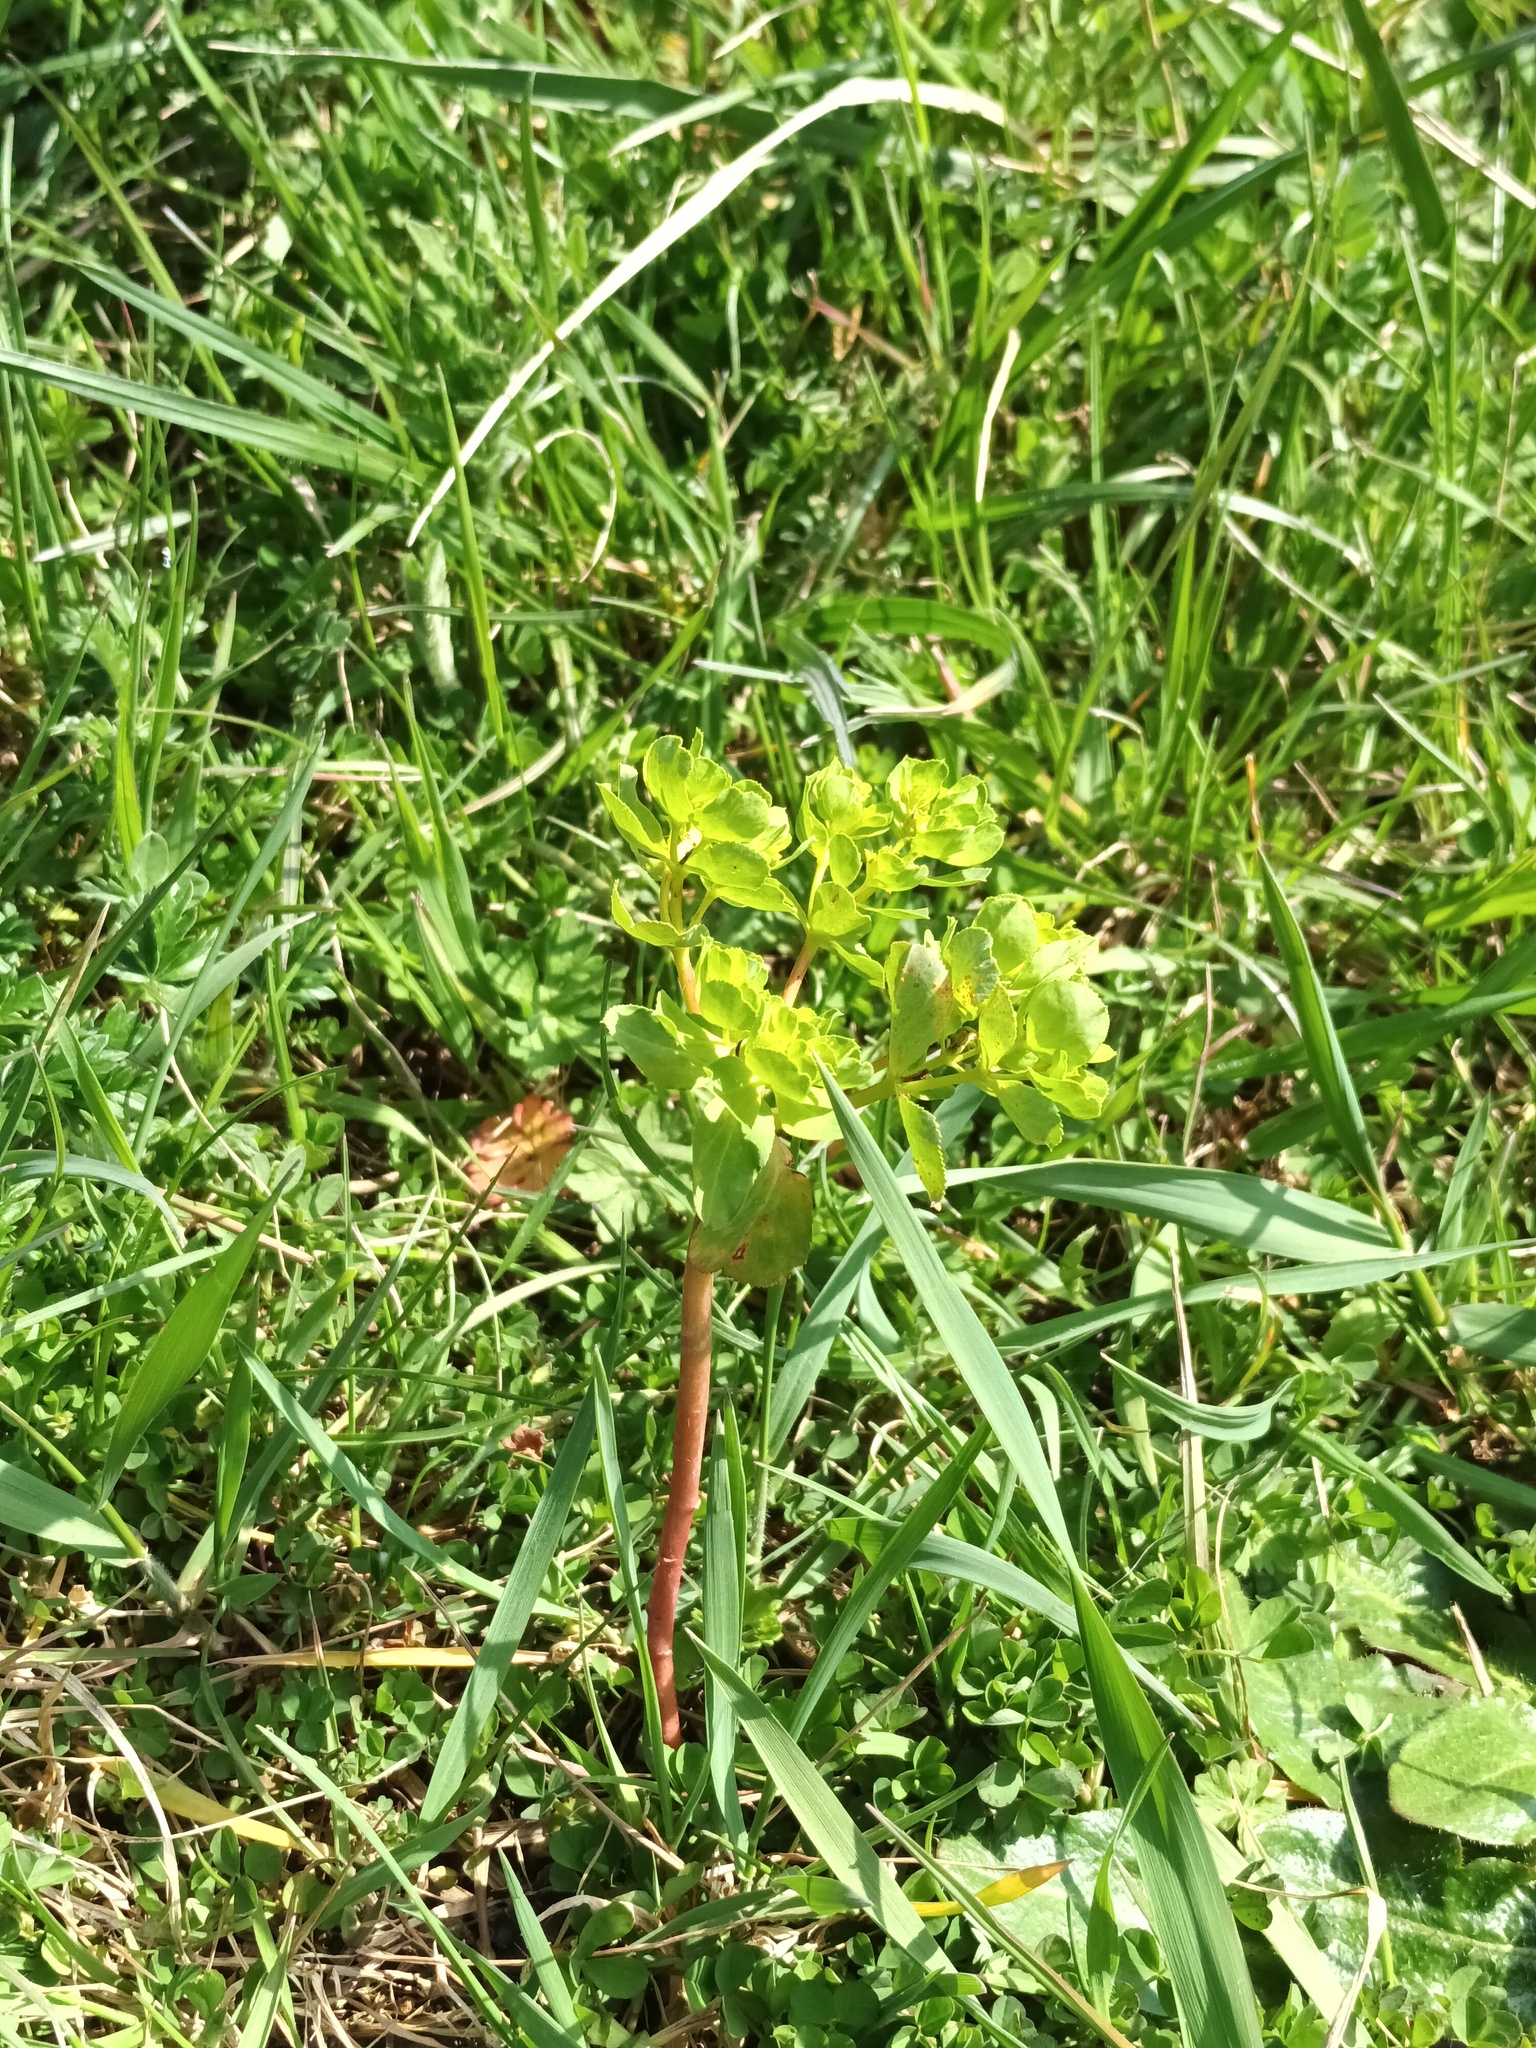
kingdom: Plantae
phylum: Tracheophyta
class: Magnoliopsida
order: Malpighiales
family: Euphorbiaceae
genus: Euphorbia
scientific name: Euphorbia helioscopia
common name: Sun spurge
